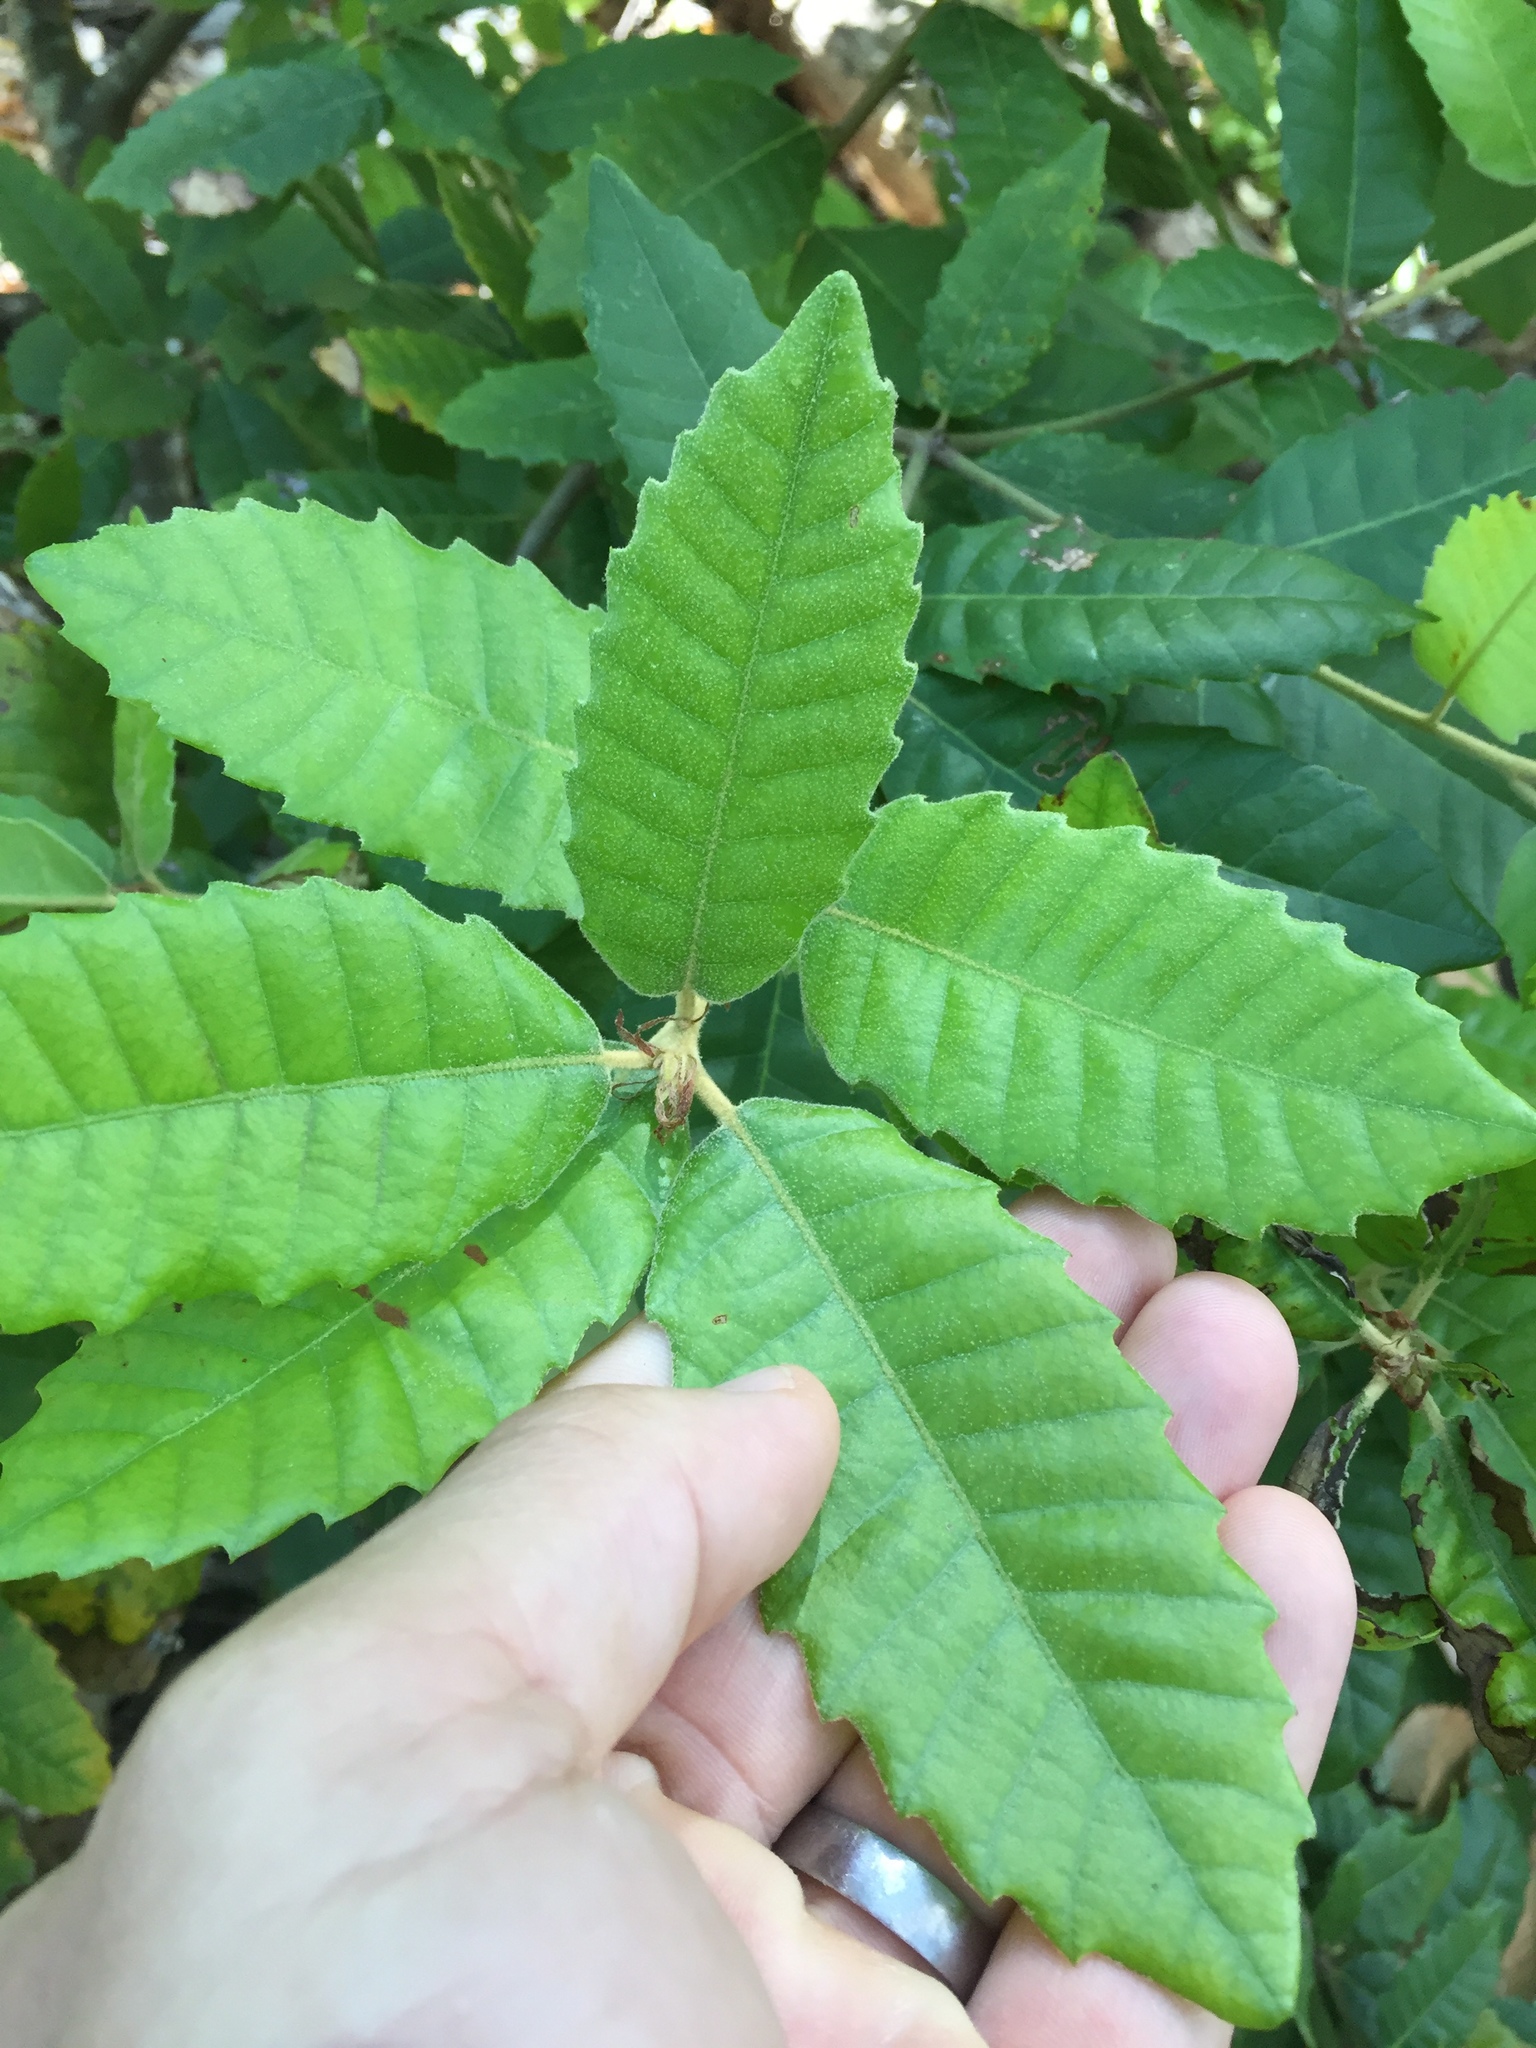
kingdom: Plantae
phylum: Tracheophyta
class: Magnoliopsida
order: Fagales
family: Fagaceae
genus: Notholithocarpus
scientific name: Notholithocarpus densiflorus
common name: Tan bark oak
